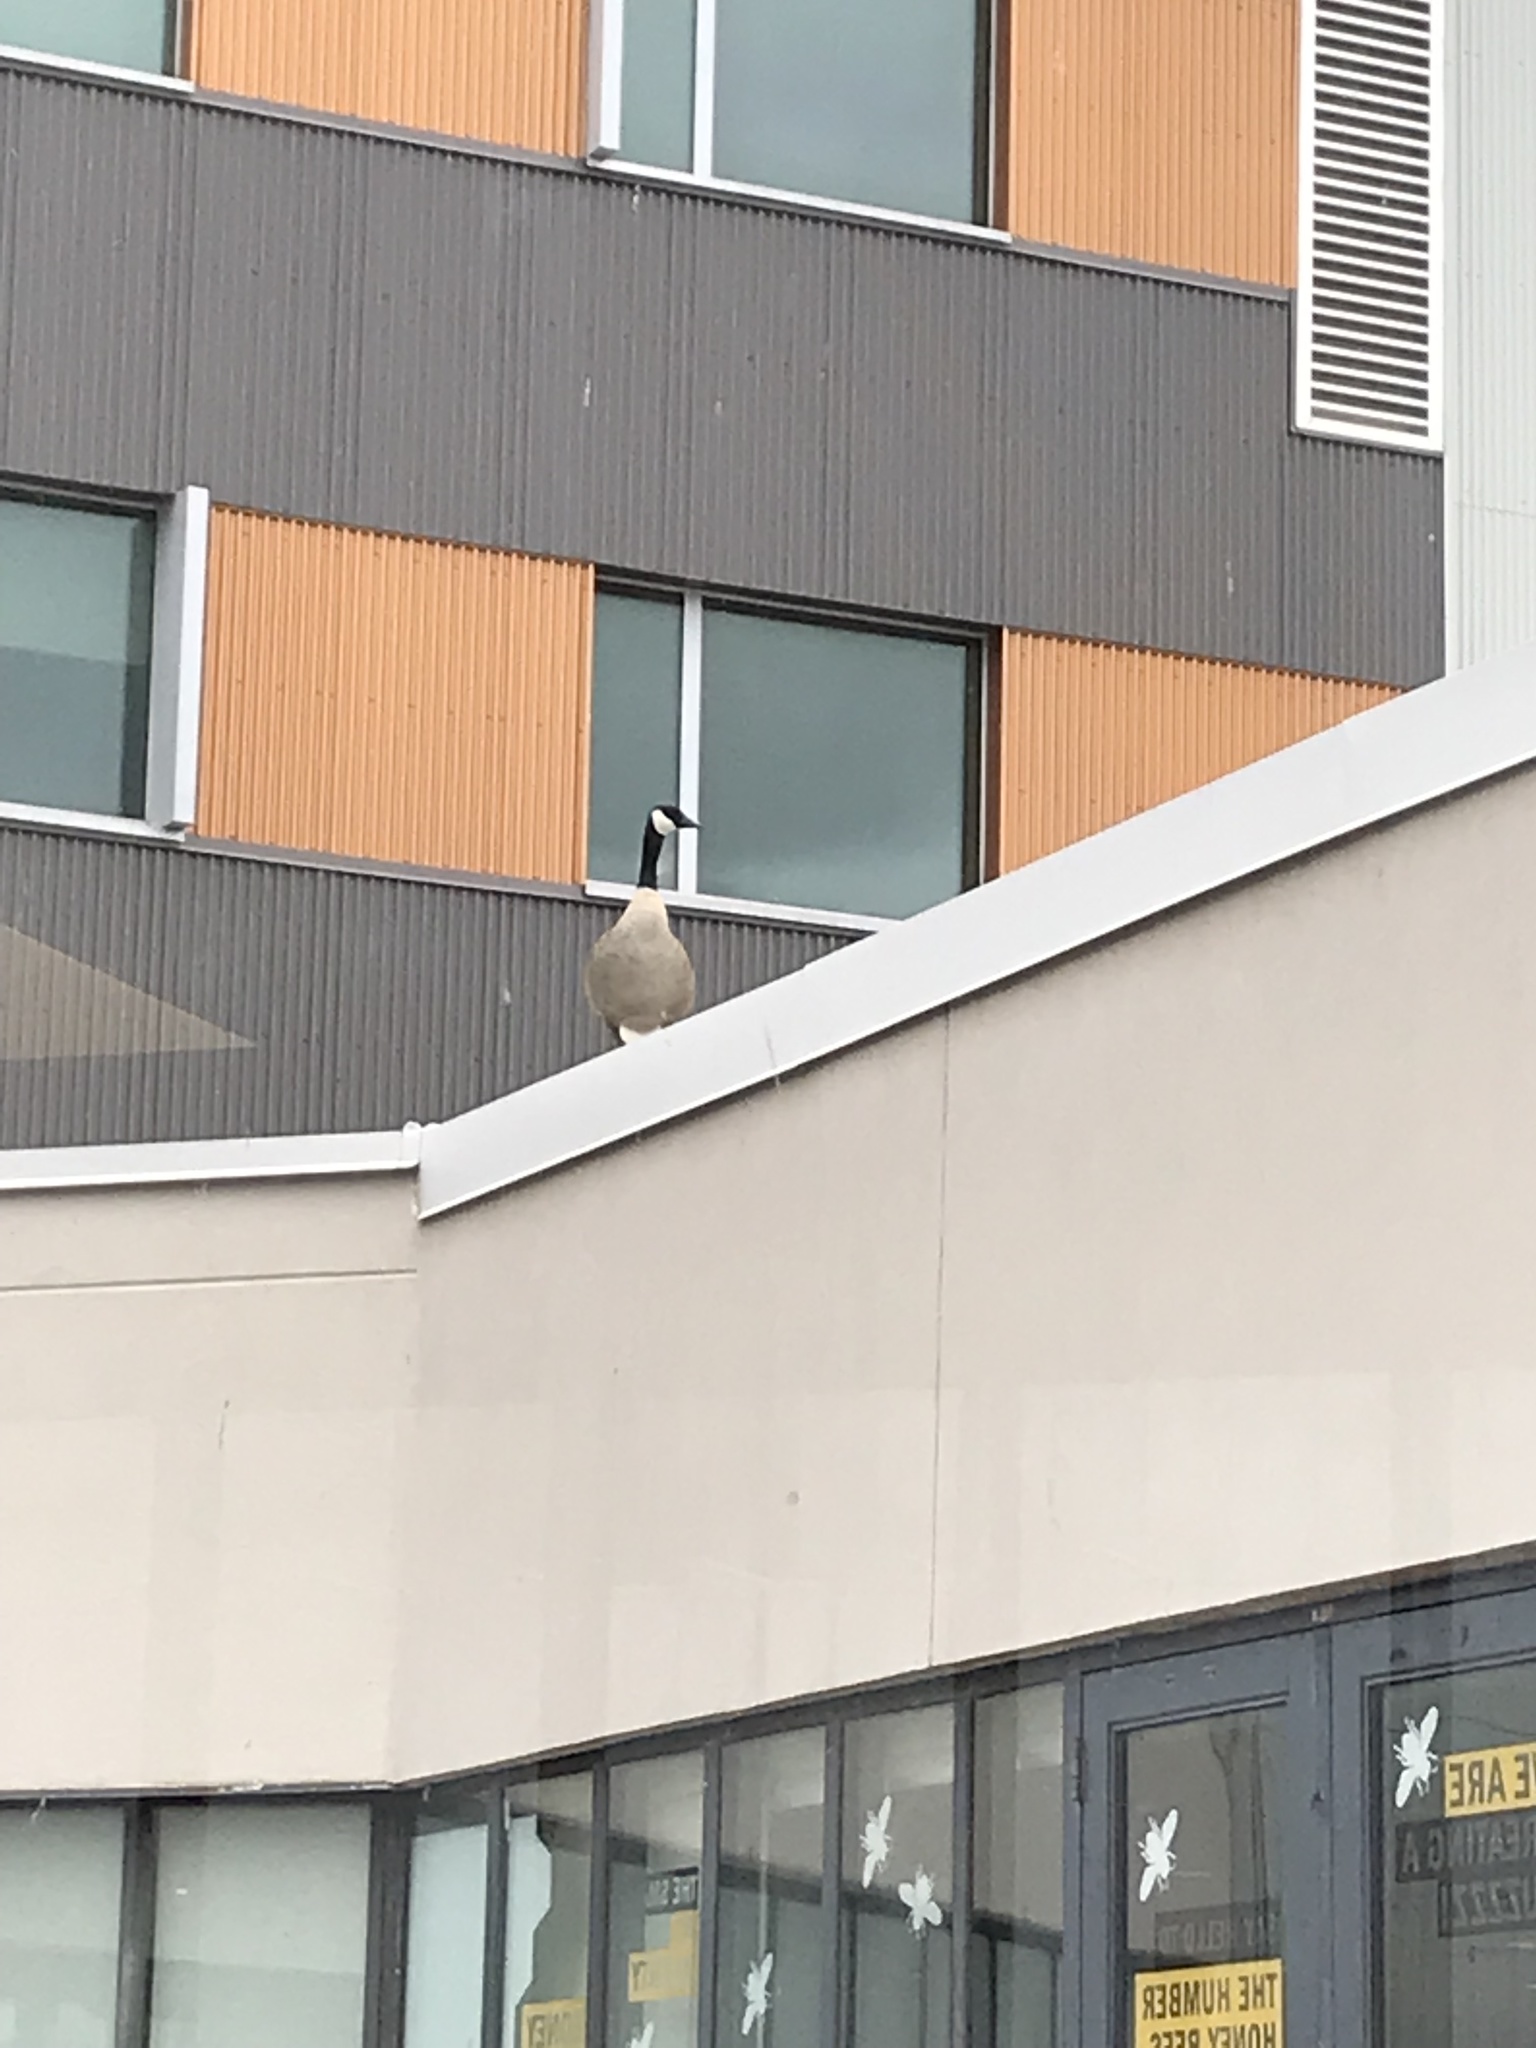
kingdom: Animalia
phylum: Chordata
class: Aves
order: Anseriformes
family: Anatidae
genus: Branta
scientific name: Branta canadensis
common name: Canada goose
